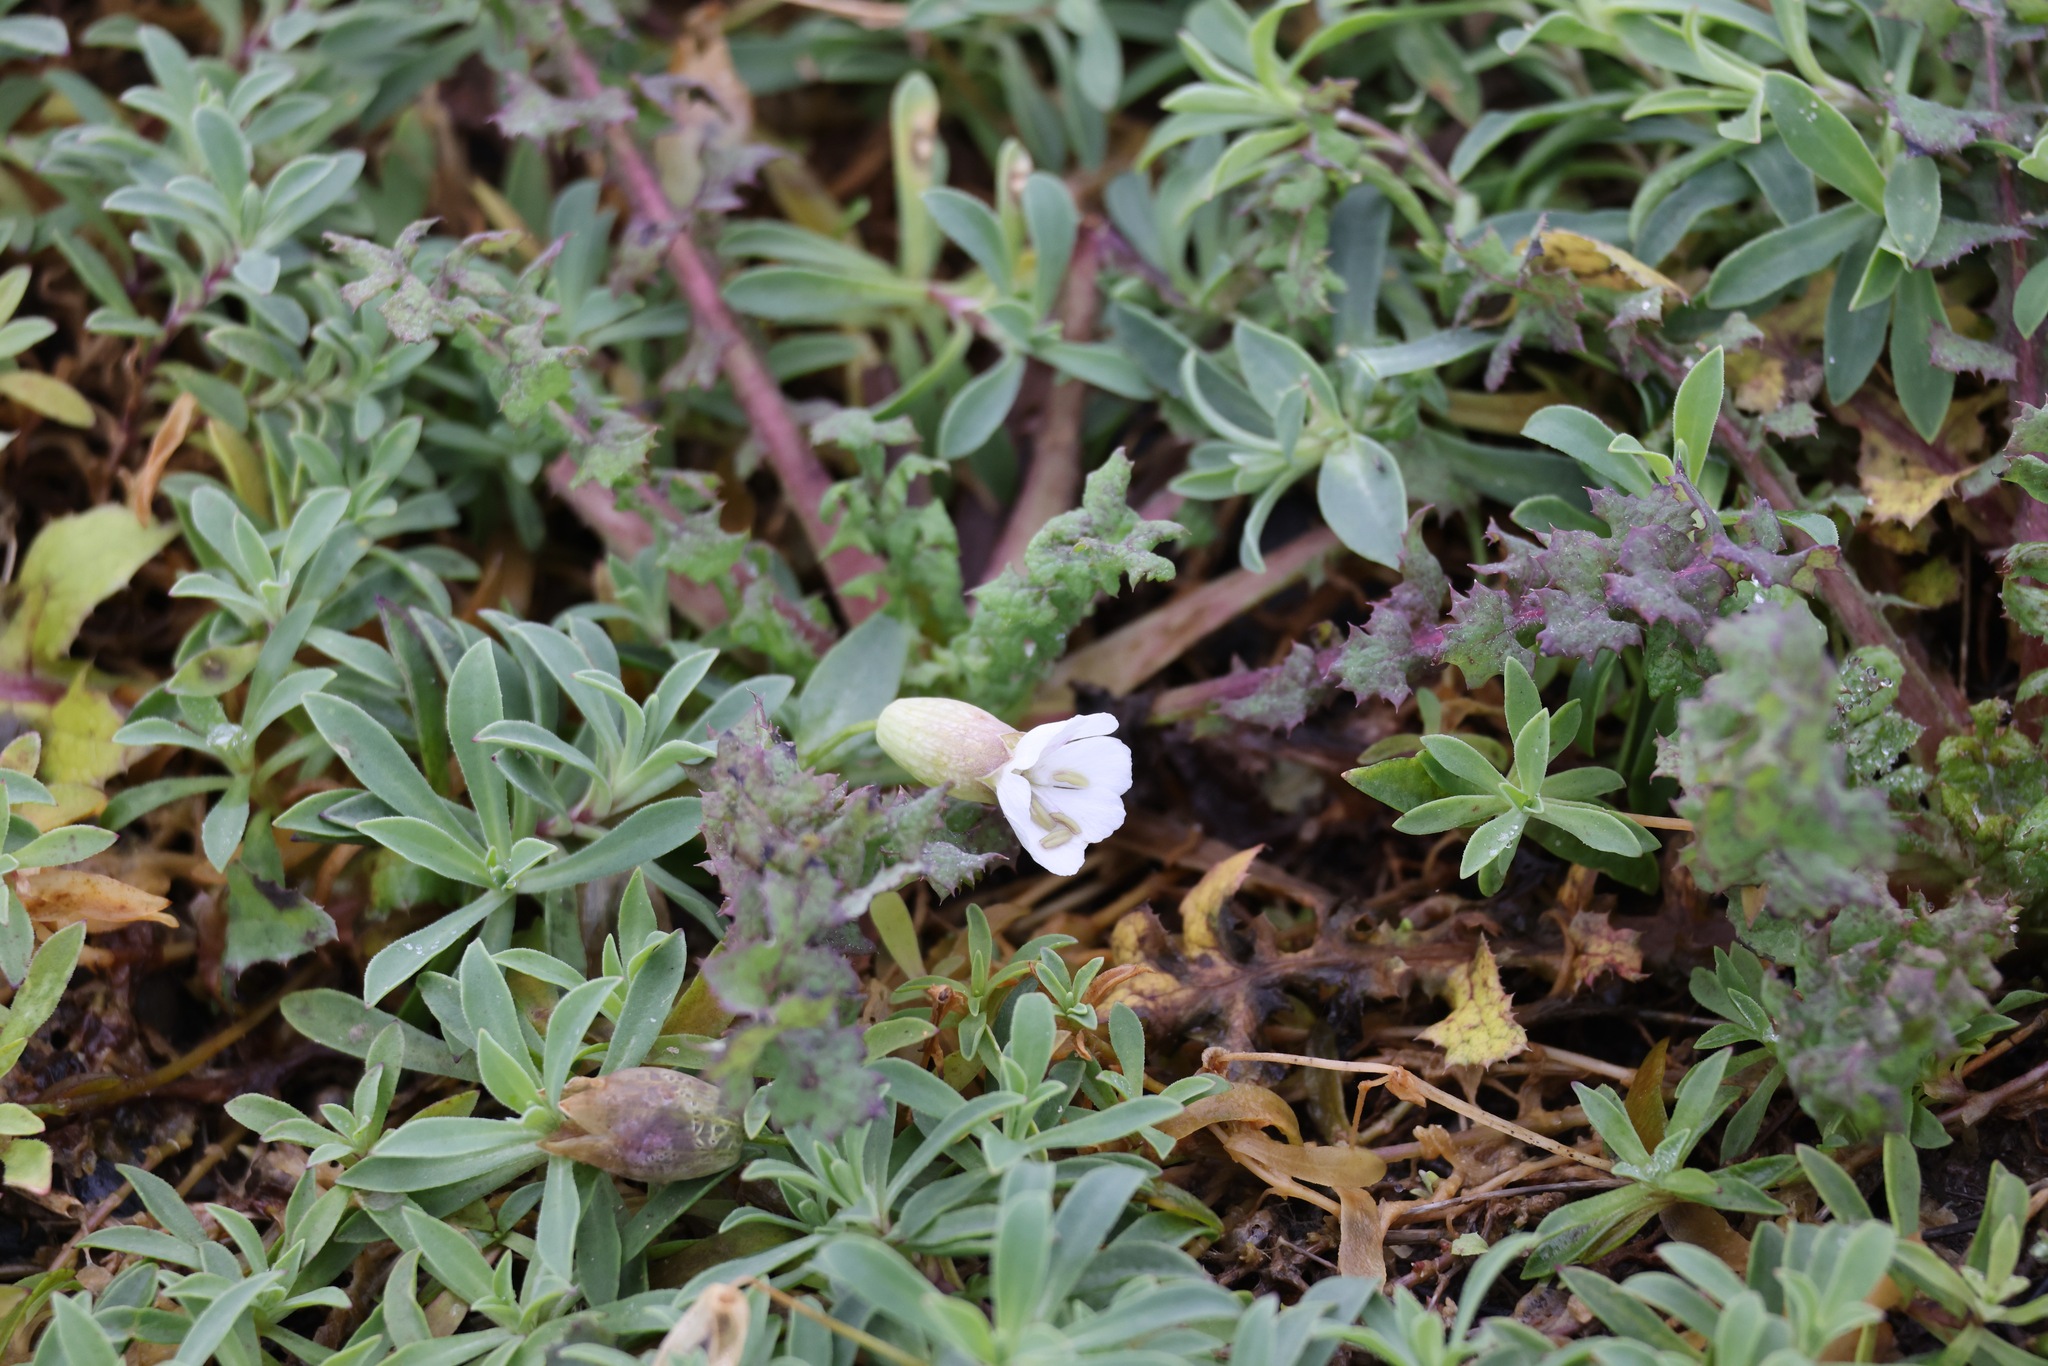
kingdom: Plantae
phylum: Tracheophyta
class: Magnoliopsida
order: Caryophyllales
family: Caryophyllaceae
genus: Silene
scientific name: Silene uniflora
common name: Sea campion
